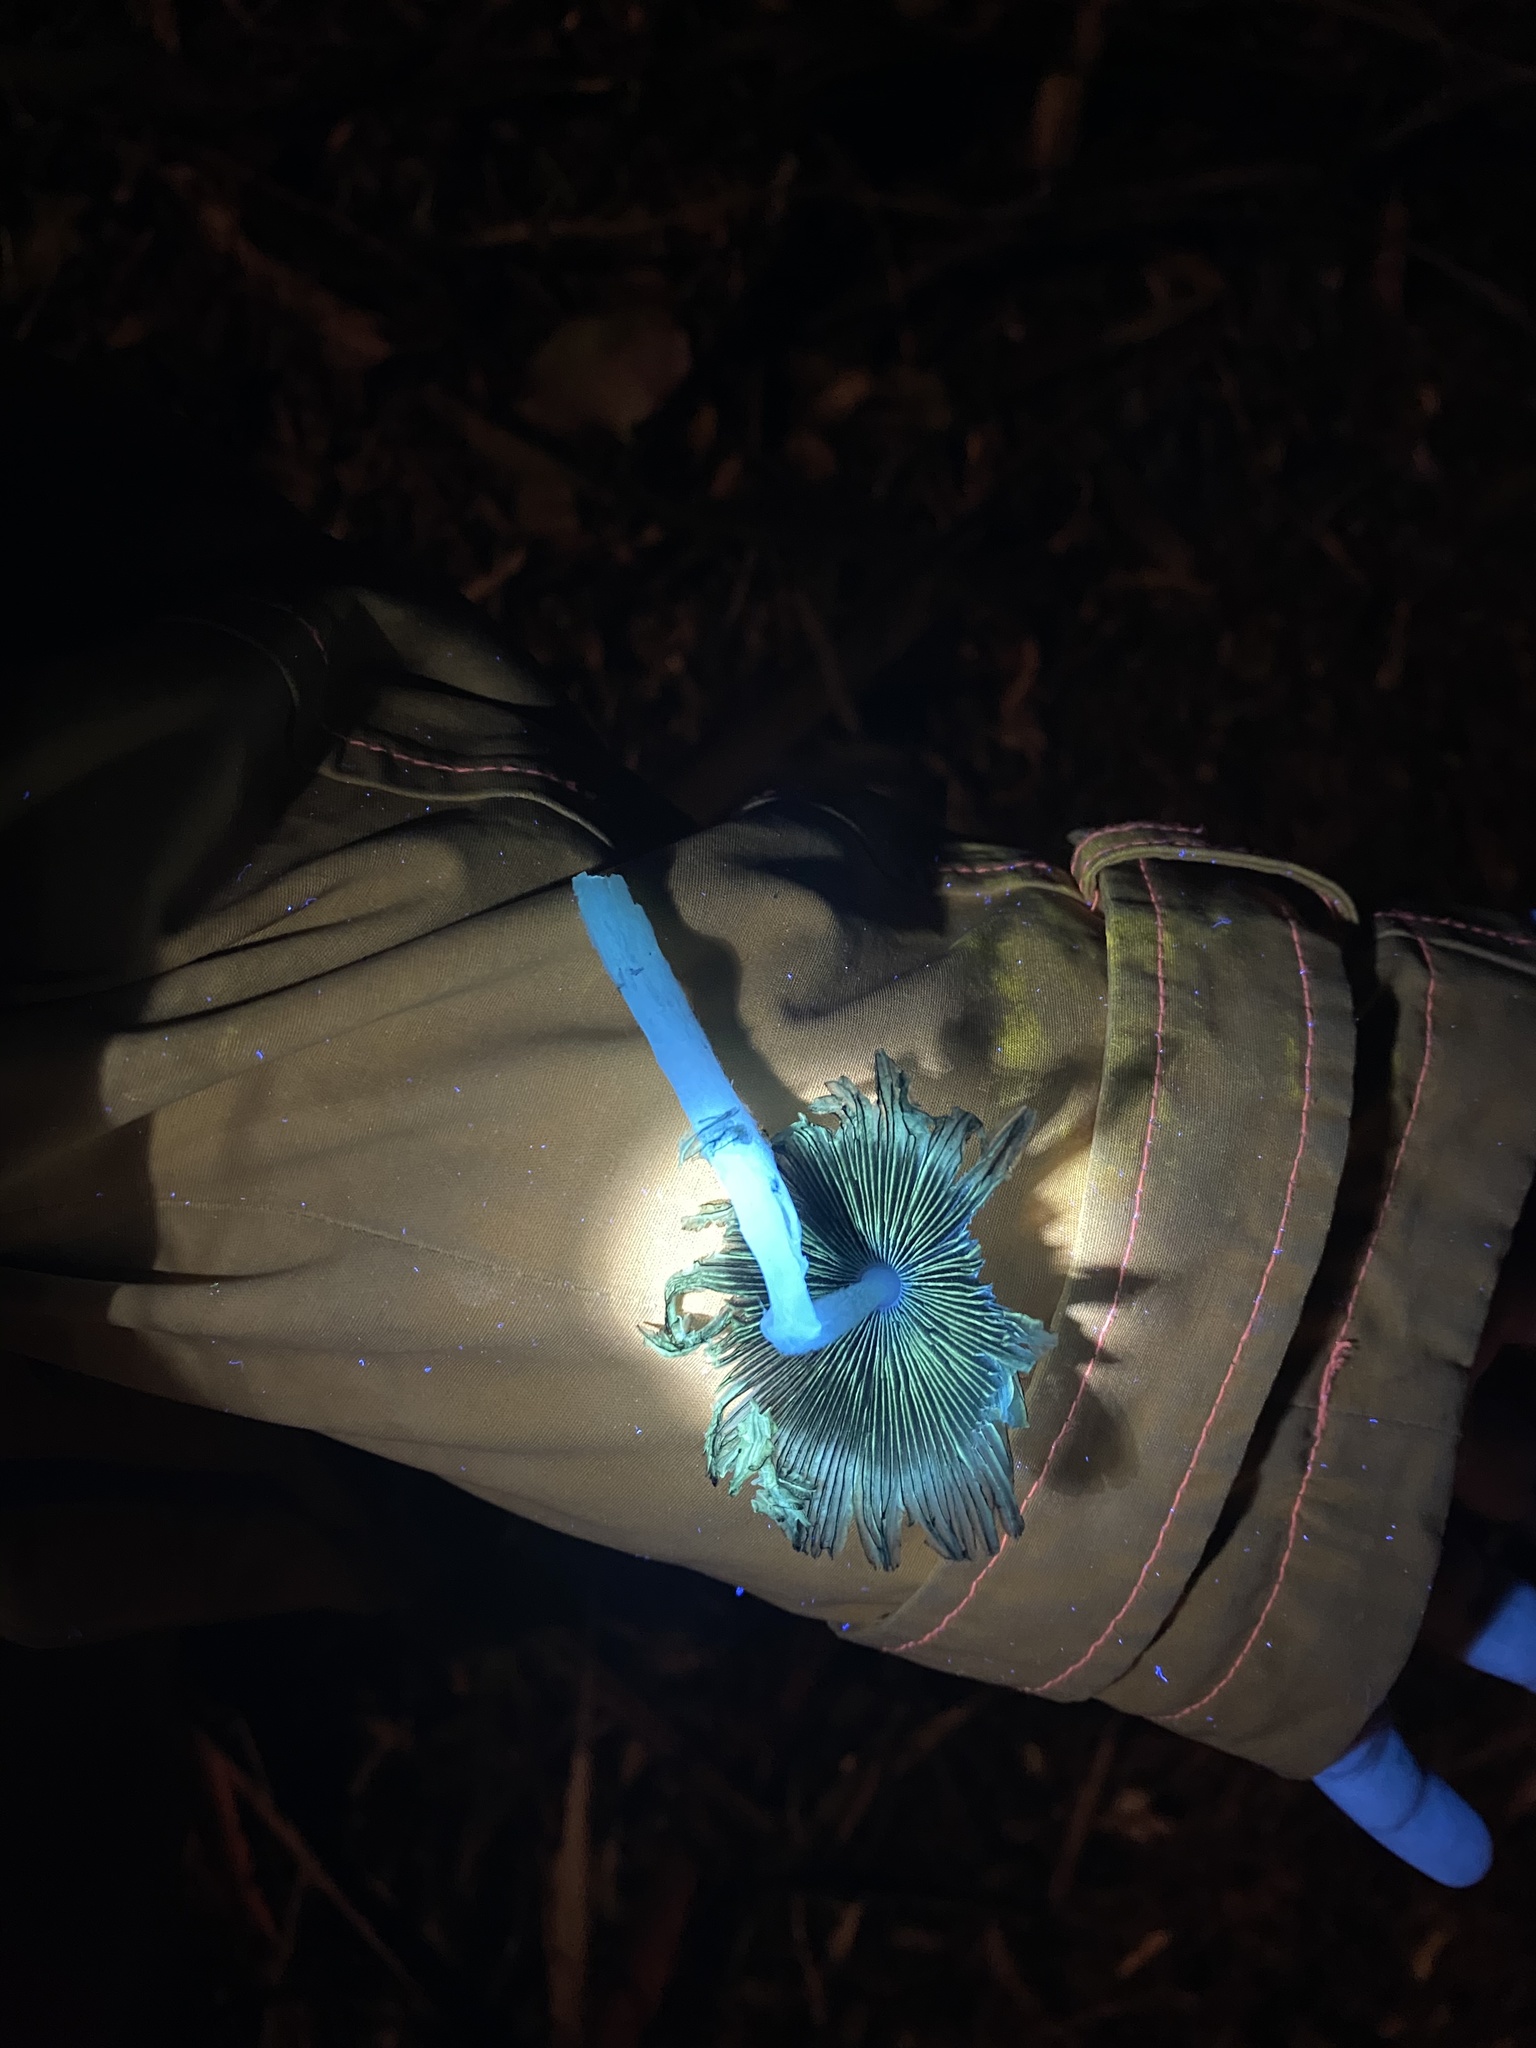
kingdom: Fungi
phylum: Basidiomycota
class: Agaricomycetes
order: Agaricales
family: Psathyrellaceae
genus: Coprinopsis
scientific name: Coprinopsis lagopus
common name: Hare'sfoot inkcap
